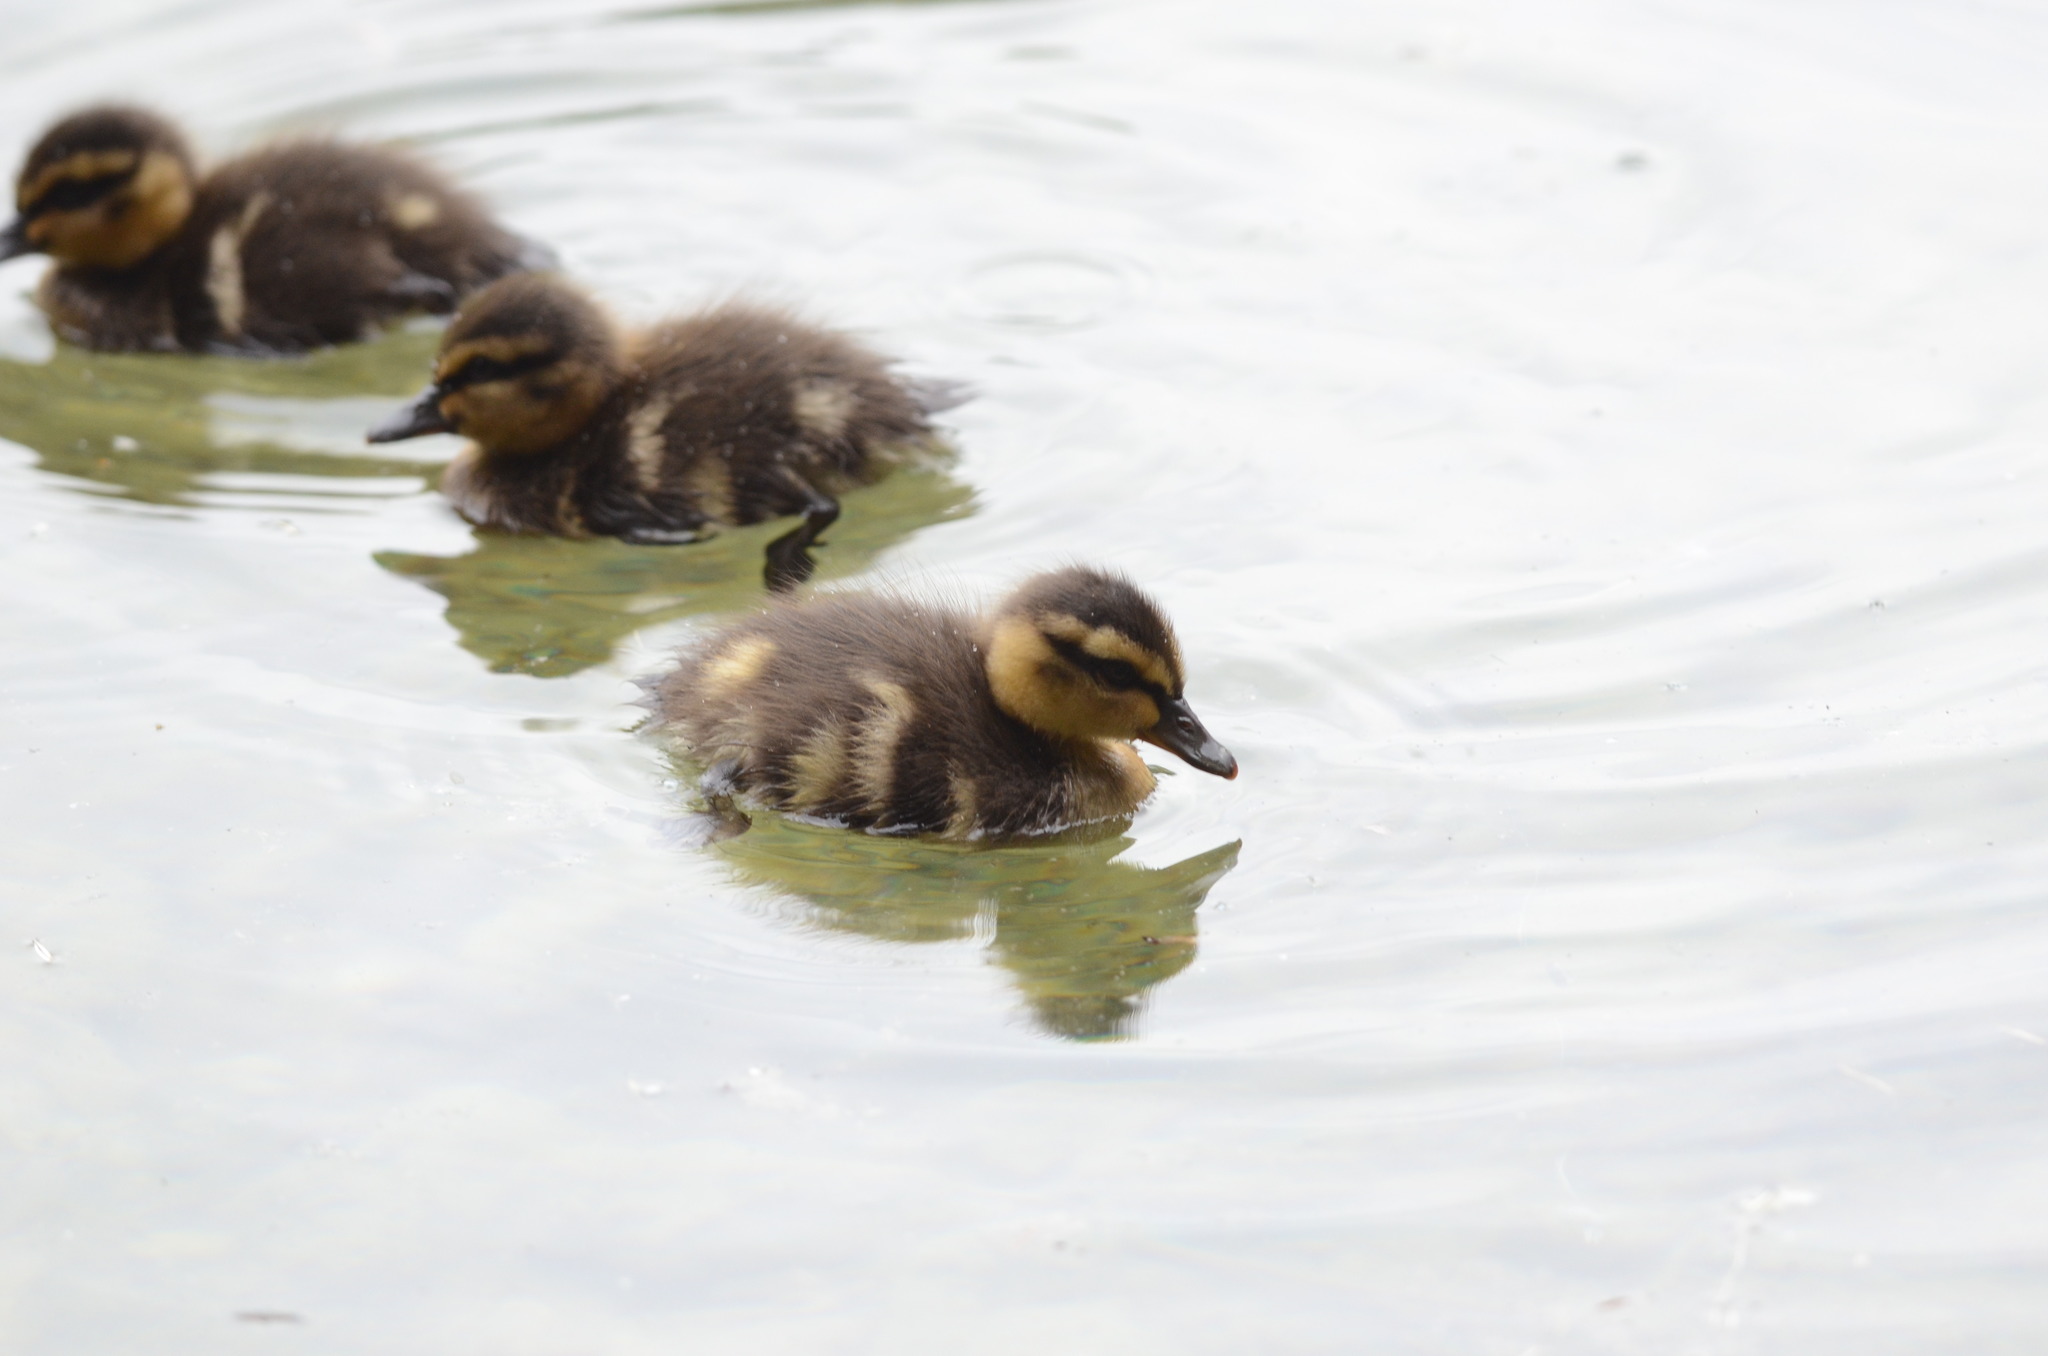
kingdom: Animalia
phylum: Chordata
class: Aves
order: Anseriformes
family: Anatidae
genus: Anas
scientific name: Anas platyrhynchos
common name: Mallard
